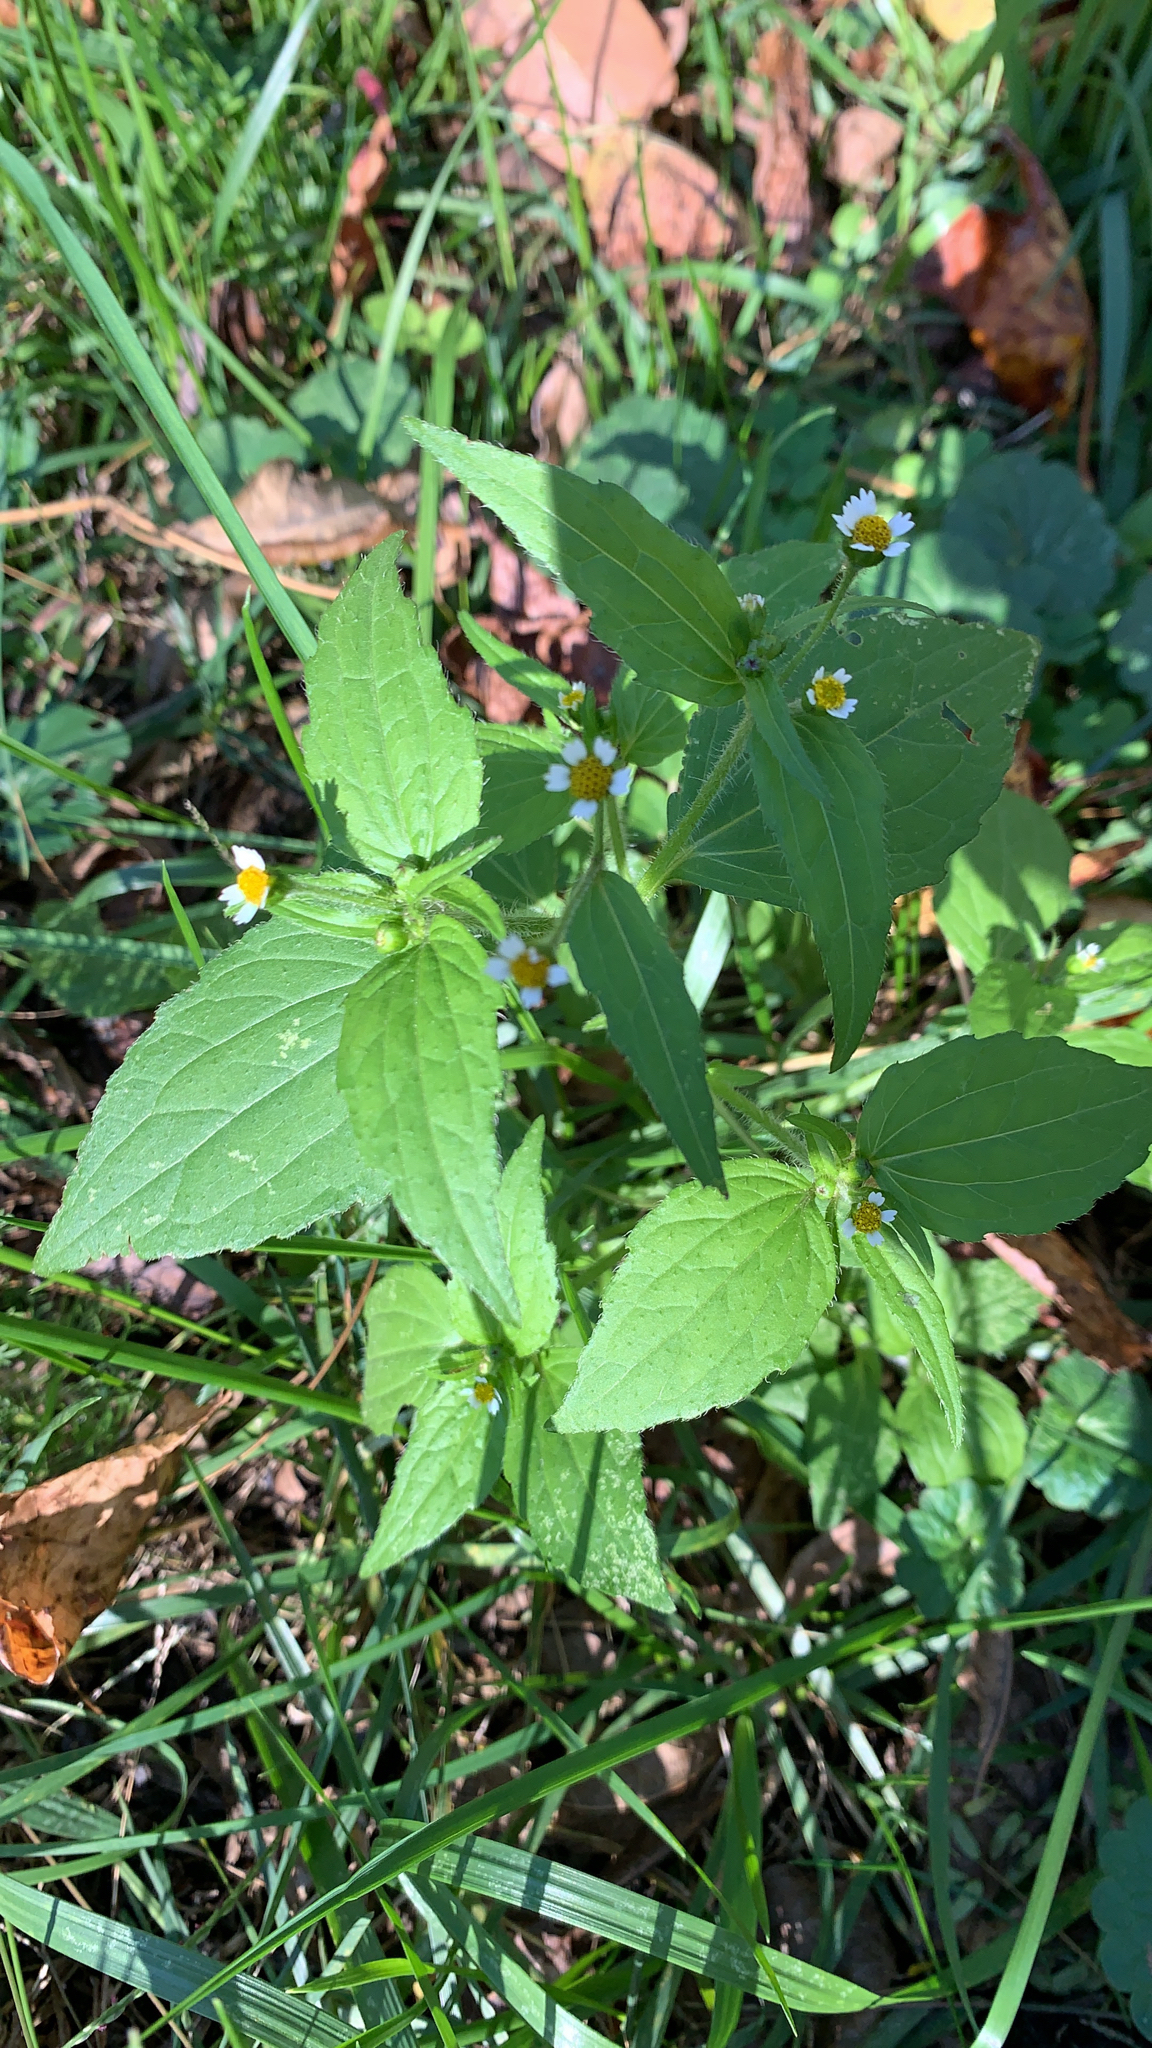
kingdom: Plantae
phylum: Tracheophyta
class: Magnoliopsida
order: Asterales
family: Asteraceae
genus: Galinsoga
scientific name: Galinsoga quadriradiata
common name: Shaggy soldier
